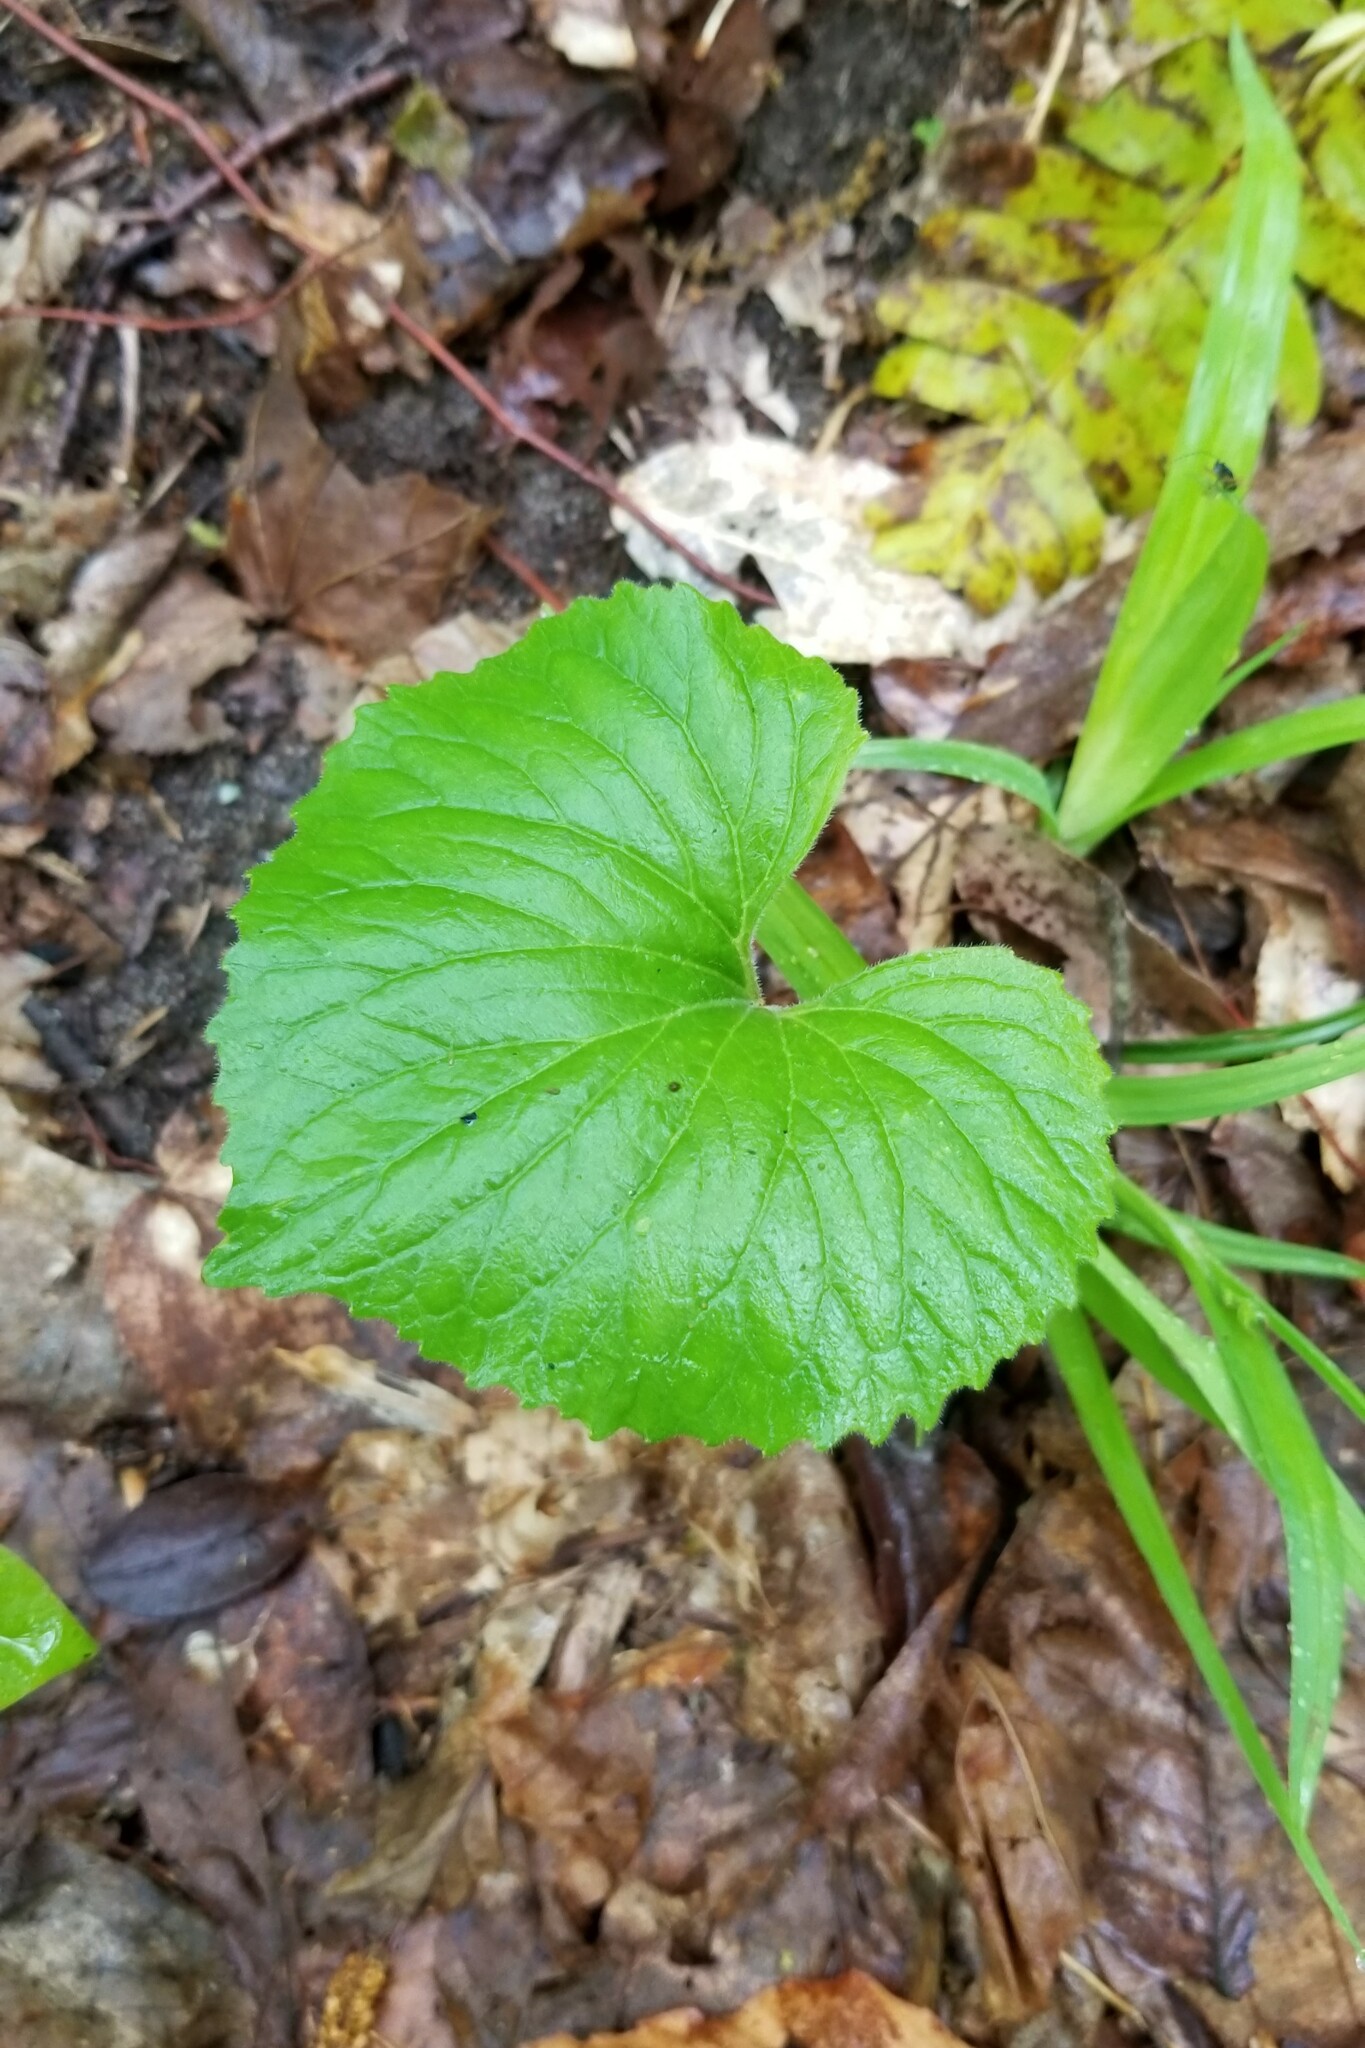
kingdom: Plantae
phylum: Tracheophyta
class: Magnoliopsida
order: Malpighiales
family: Violaceae
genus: Viola
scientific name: Viola pubescens
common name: Yellow forest violet
